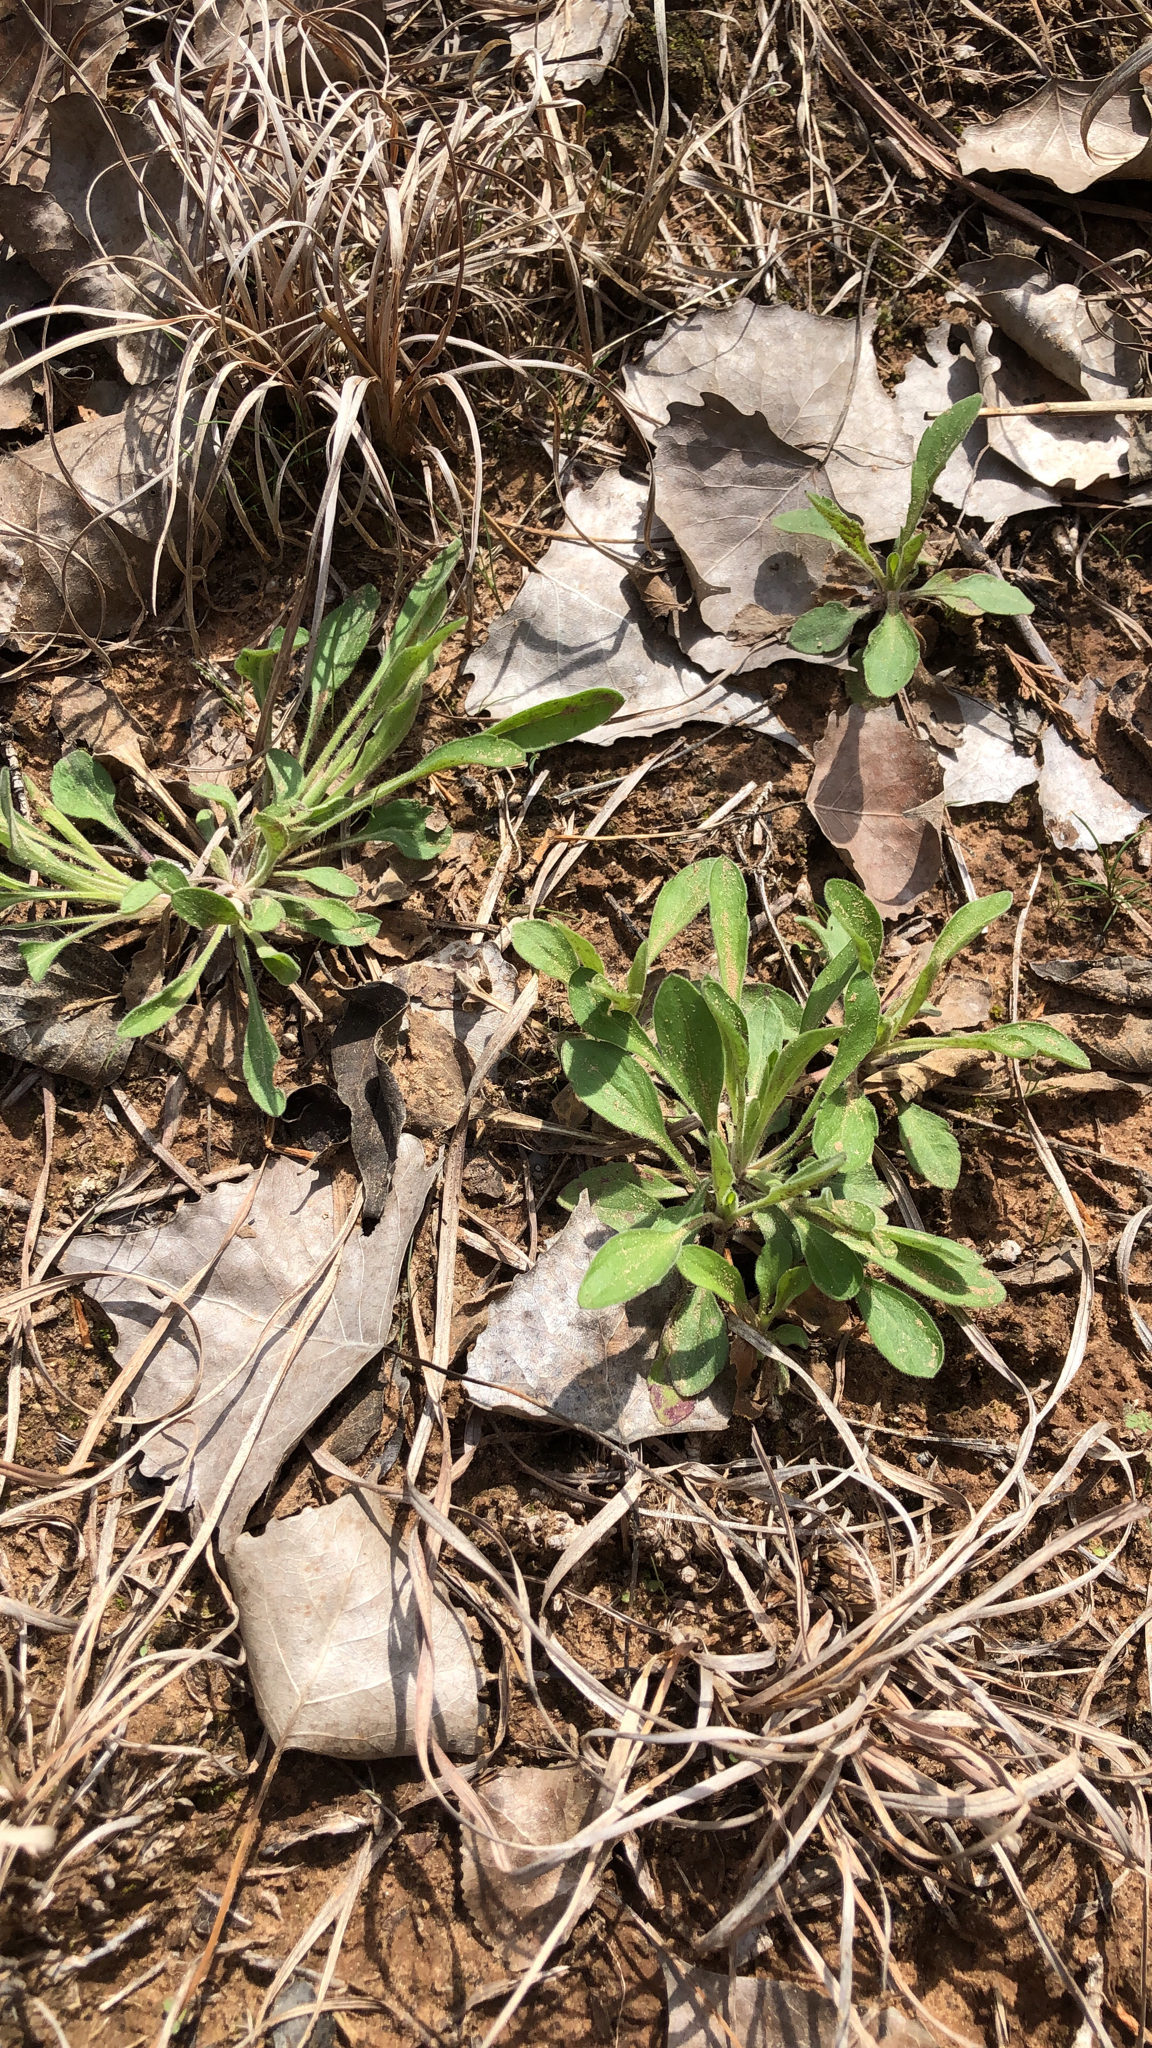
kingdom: Plantae
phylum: Tracheophyta
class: Magnoliopsida
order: Asterales
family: Asteraceae
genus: Erigeron
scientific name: Erigeron strigosus
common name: Common eastern fleabane
